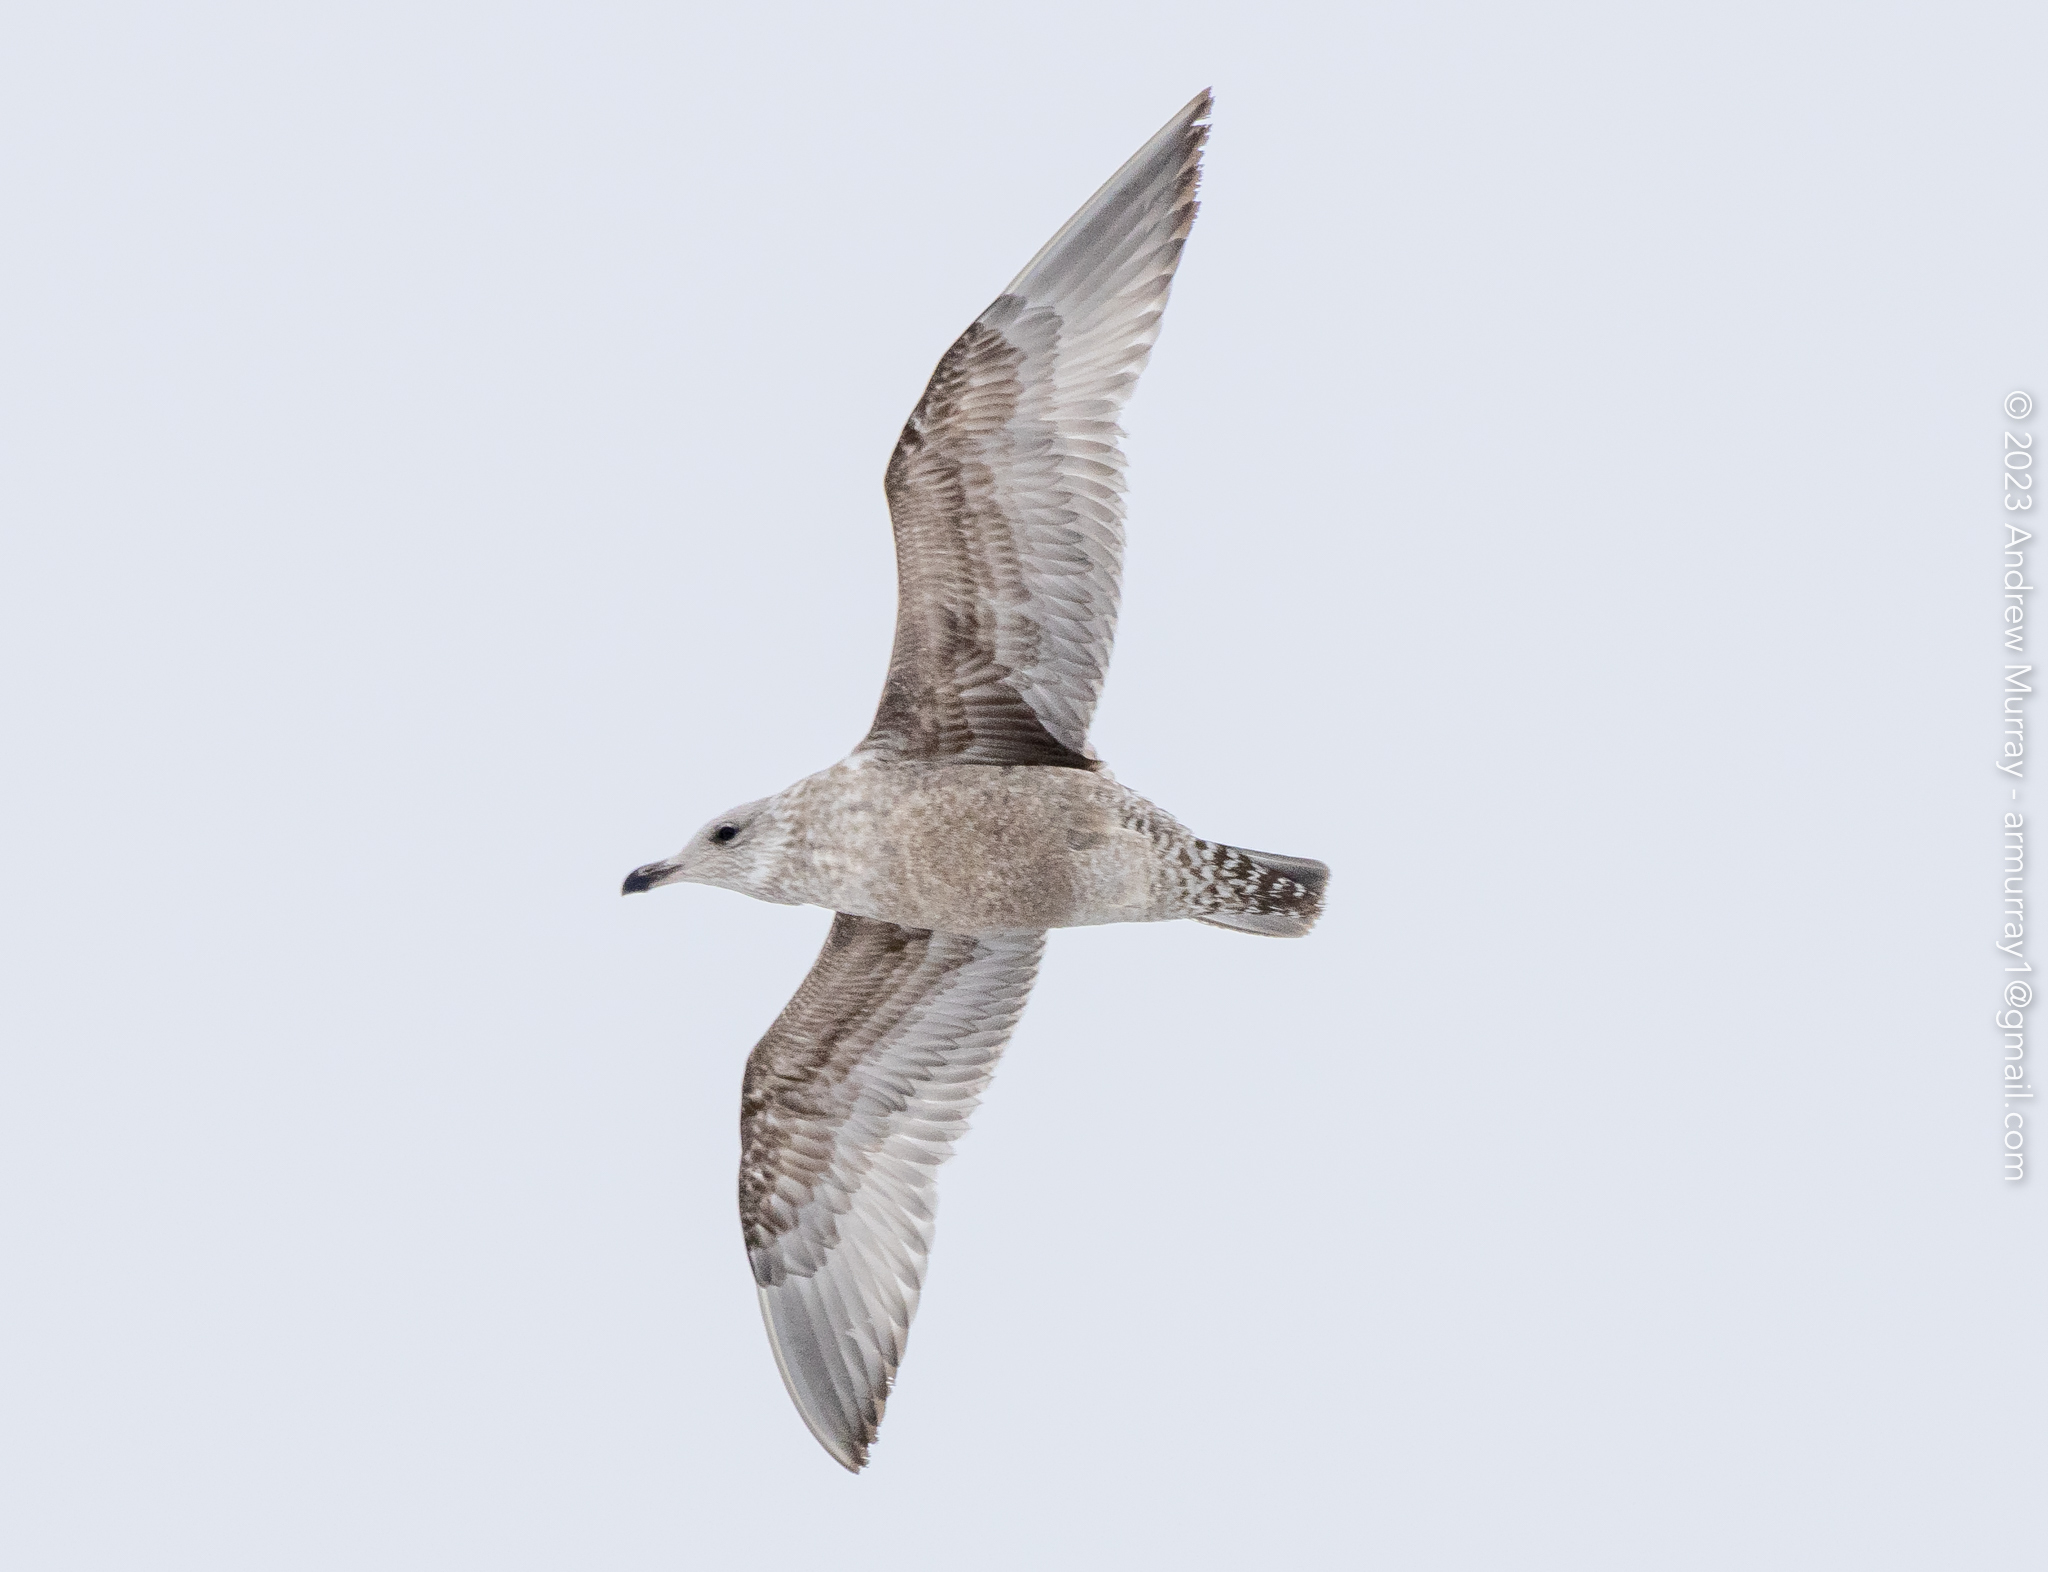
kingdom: Animalia
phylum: Chordata
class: Aves
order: Charadriiformes
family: Laridae
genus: Larus
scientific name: Larus argentatus
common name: Herring gull
